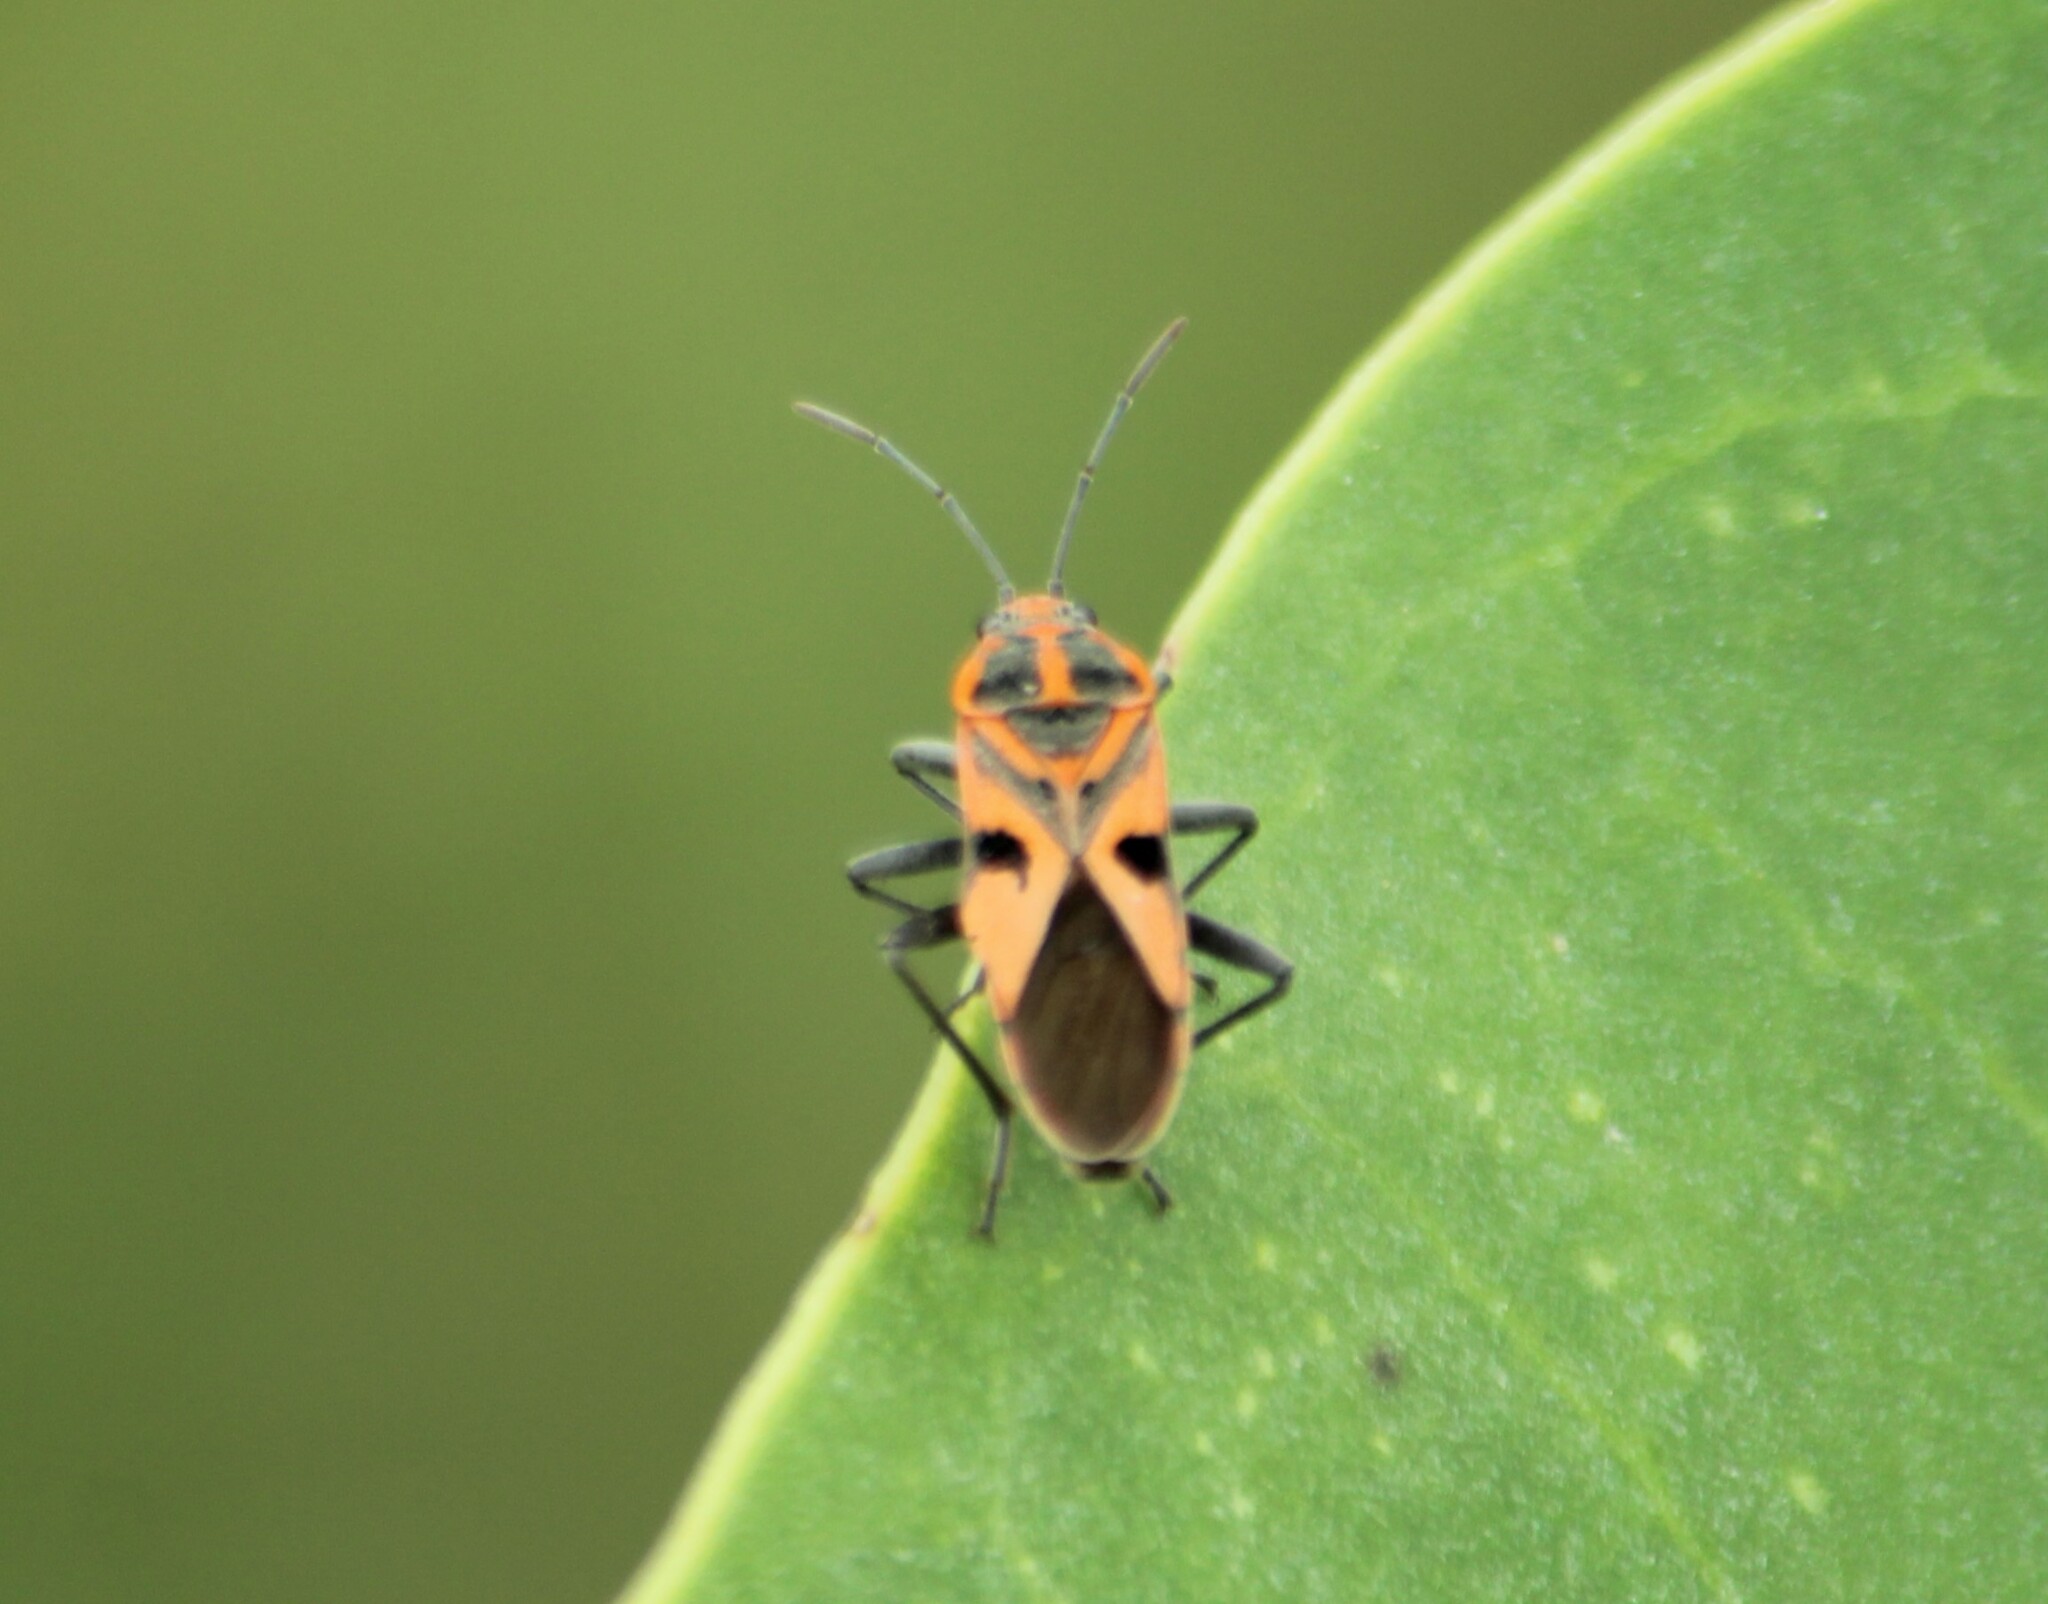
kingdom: Animalia
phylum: Arthropoda
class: Insecta
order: Hemiptera
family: Lygaeidae
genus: Spilostethus
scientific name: Spilostethus hospes
